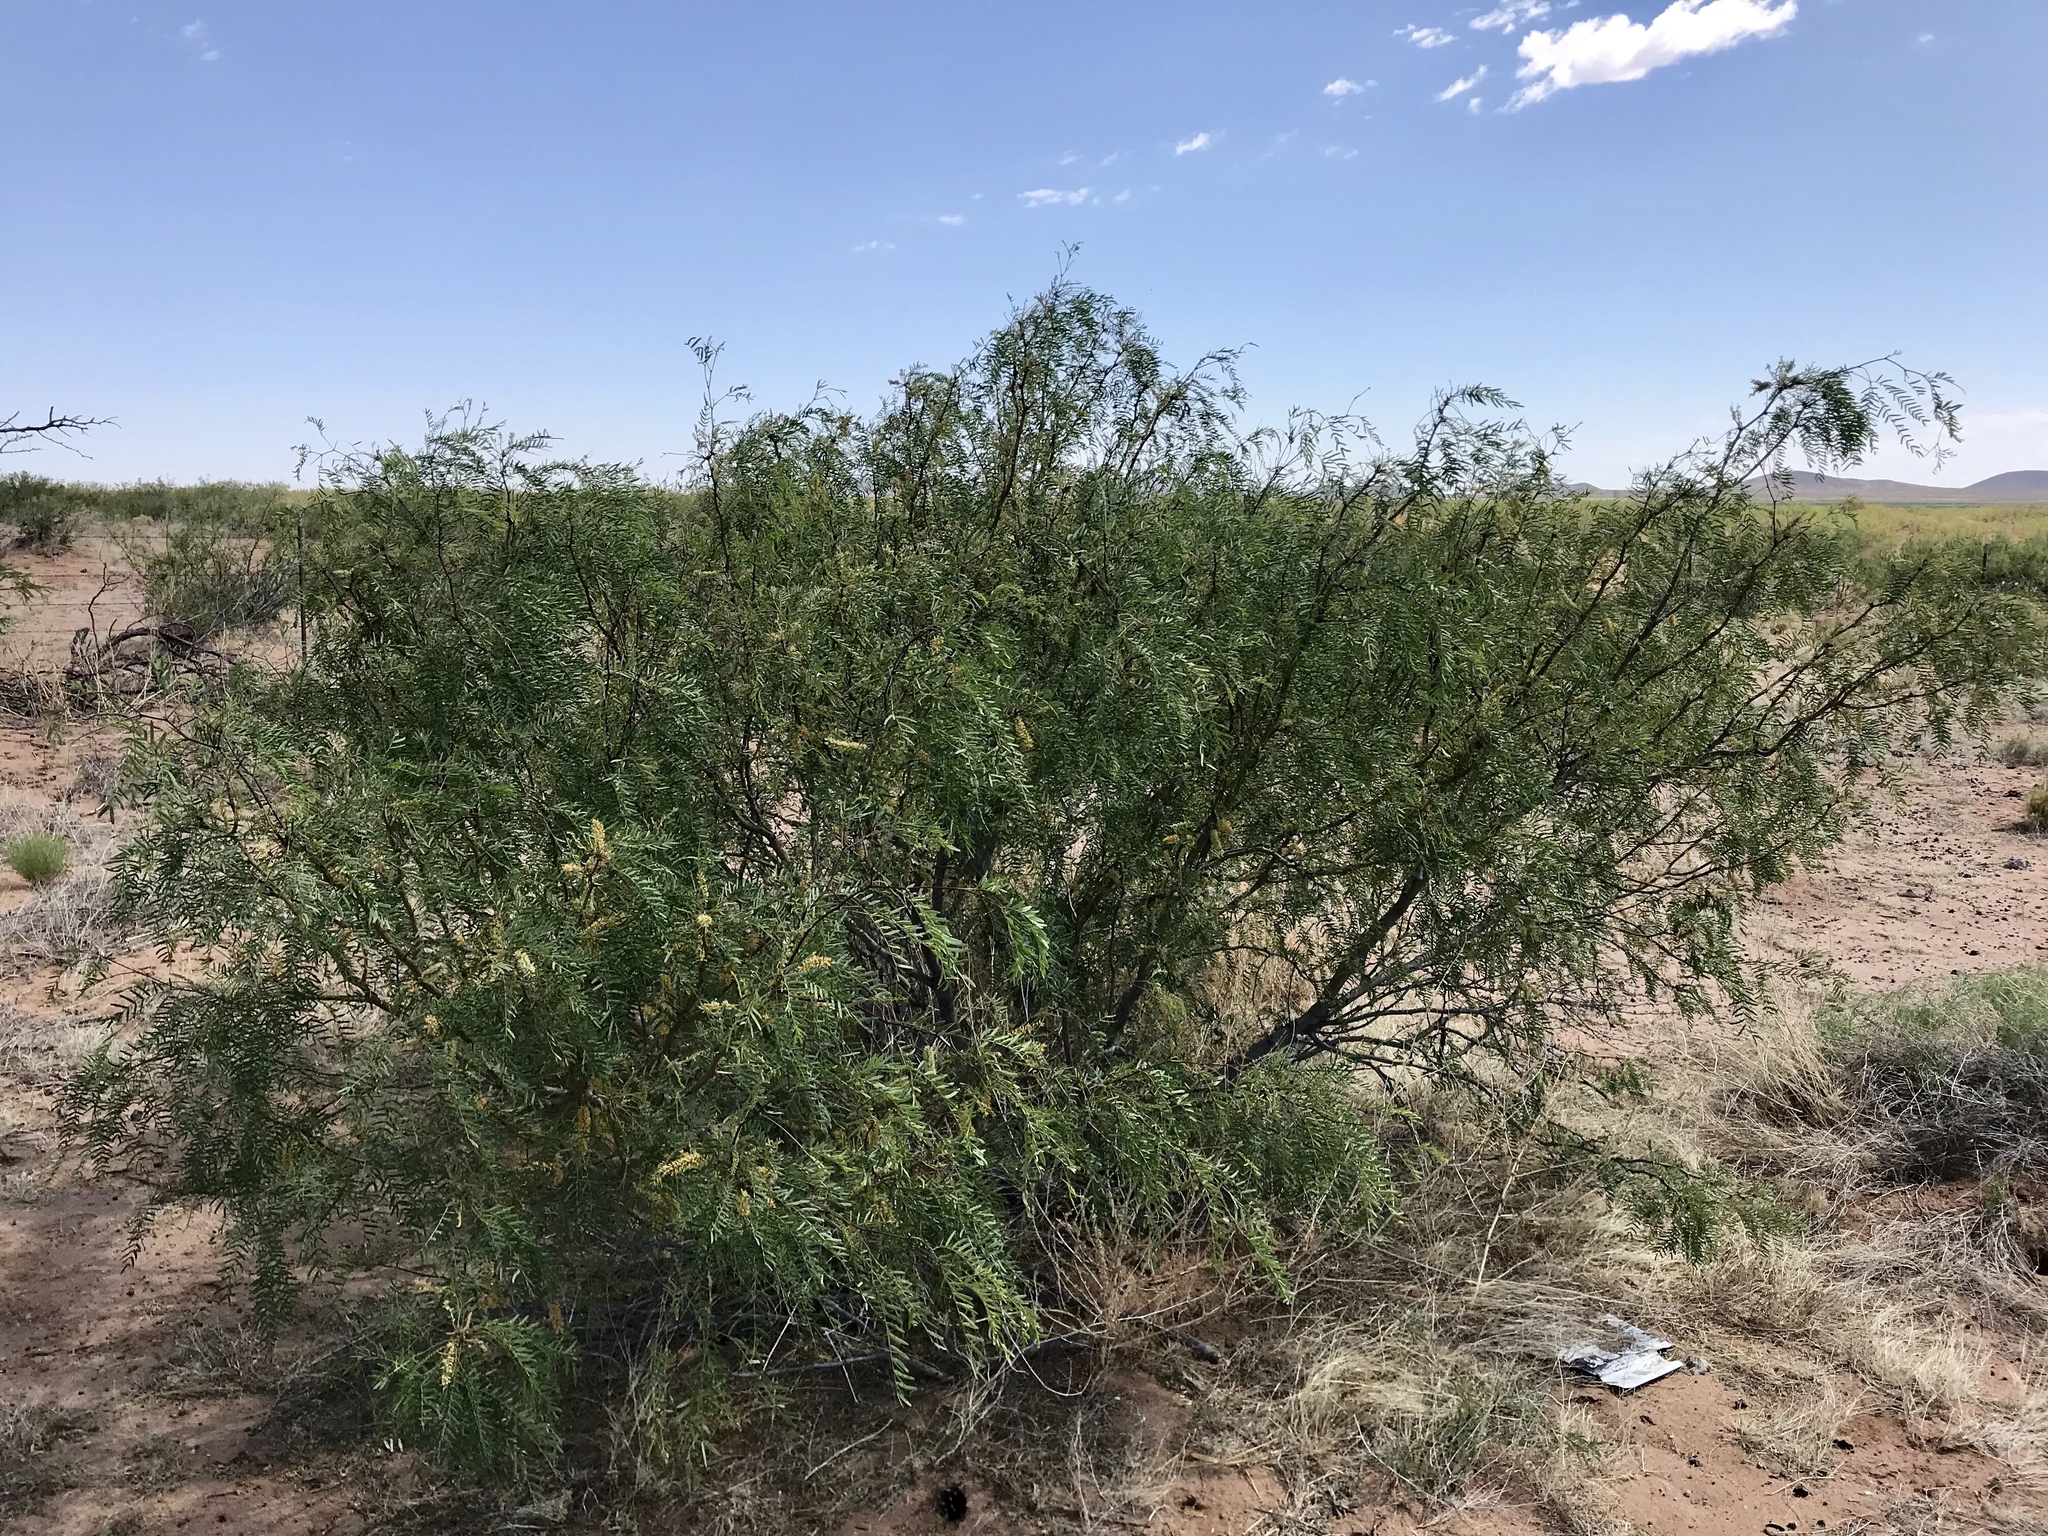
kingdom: Plantae
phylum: Tracheophyta
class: Magnoliopsida
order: Fabales
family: Fabaceae
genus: Prosopis
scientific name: Prosopis glandulosa
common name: Honey mesquite
